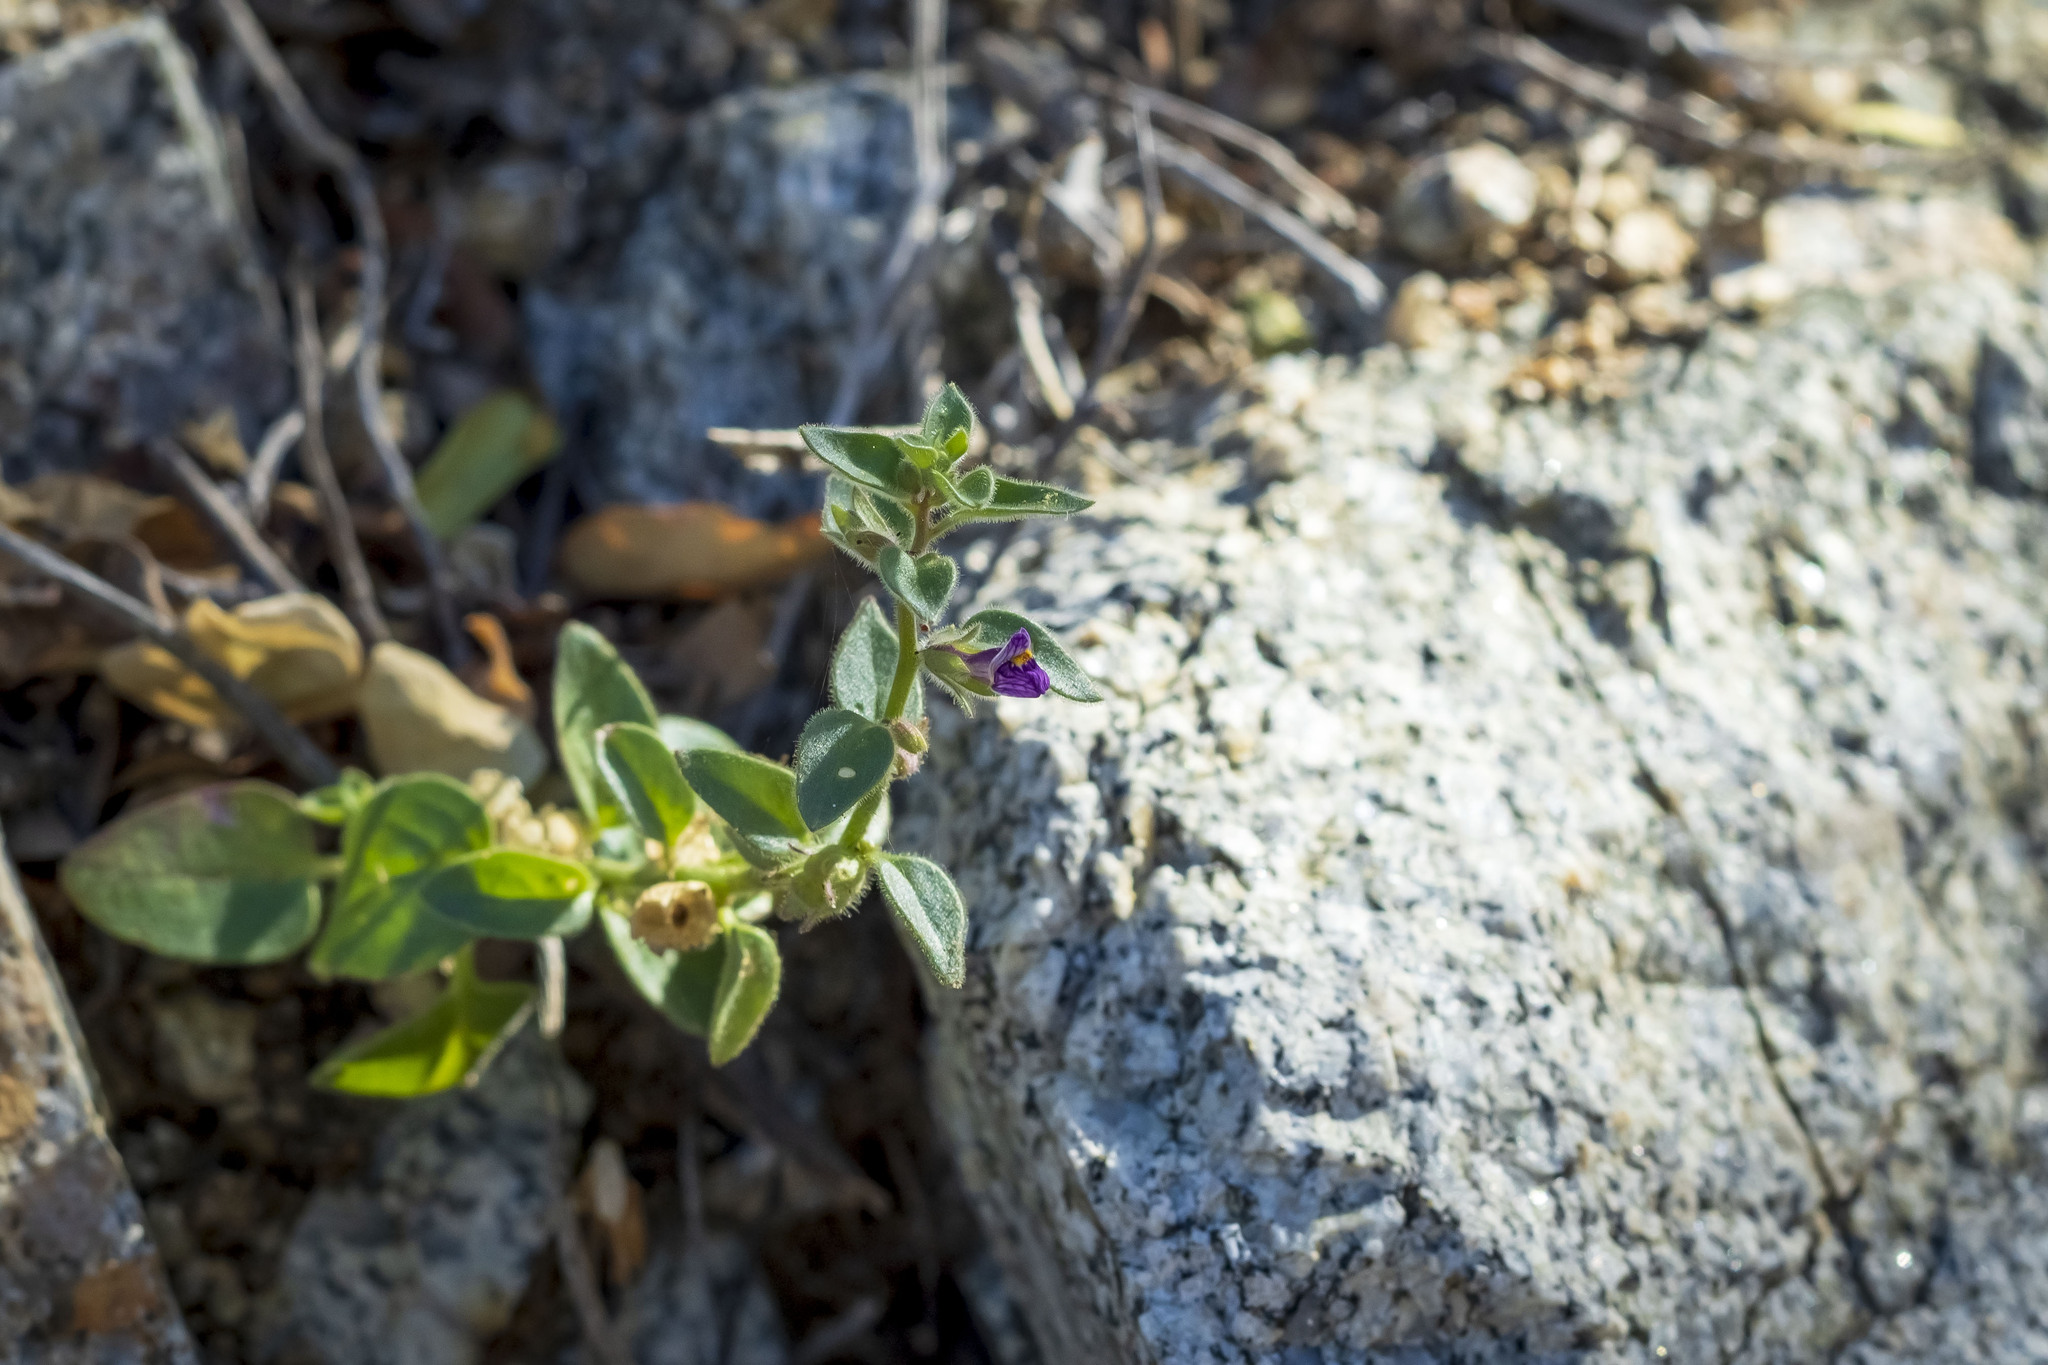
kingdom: Plantae
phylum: Tracheophyta
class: Magnoliopsida
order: Lamiales
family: Plantaginaceae
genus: Pseudorontium
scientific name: Pseudorontium cyathiferum
